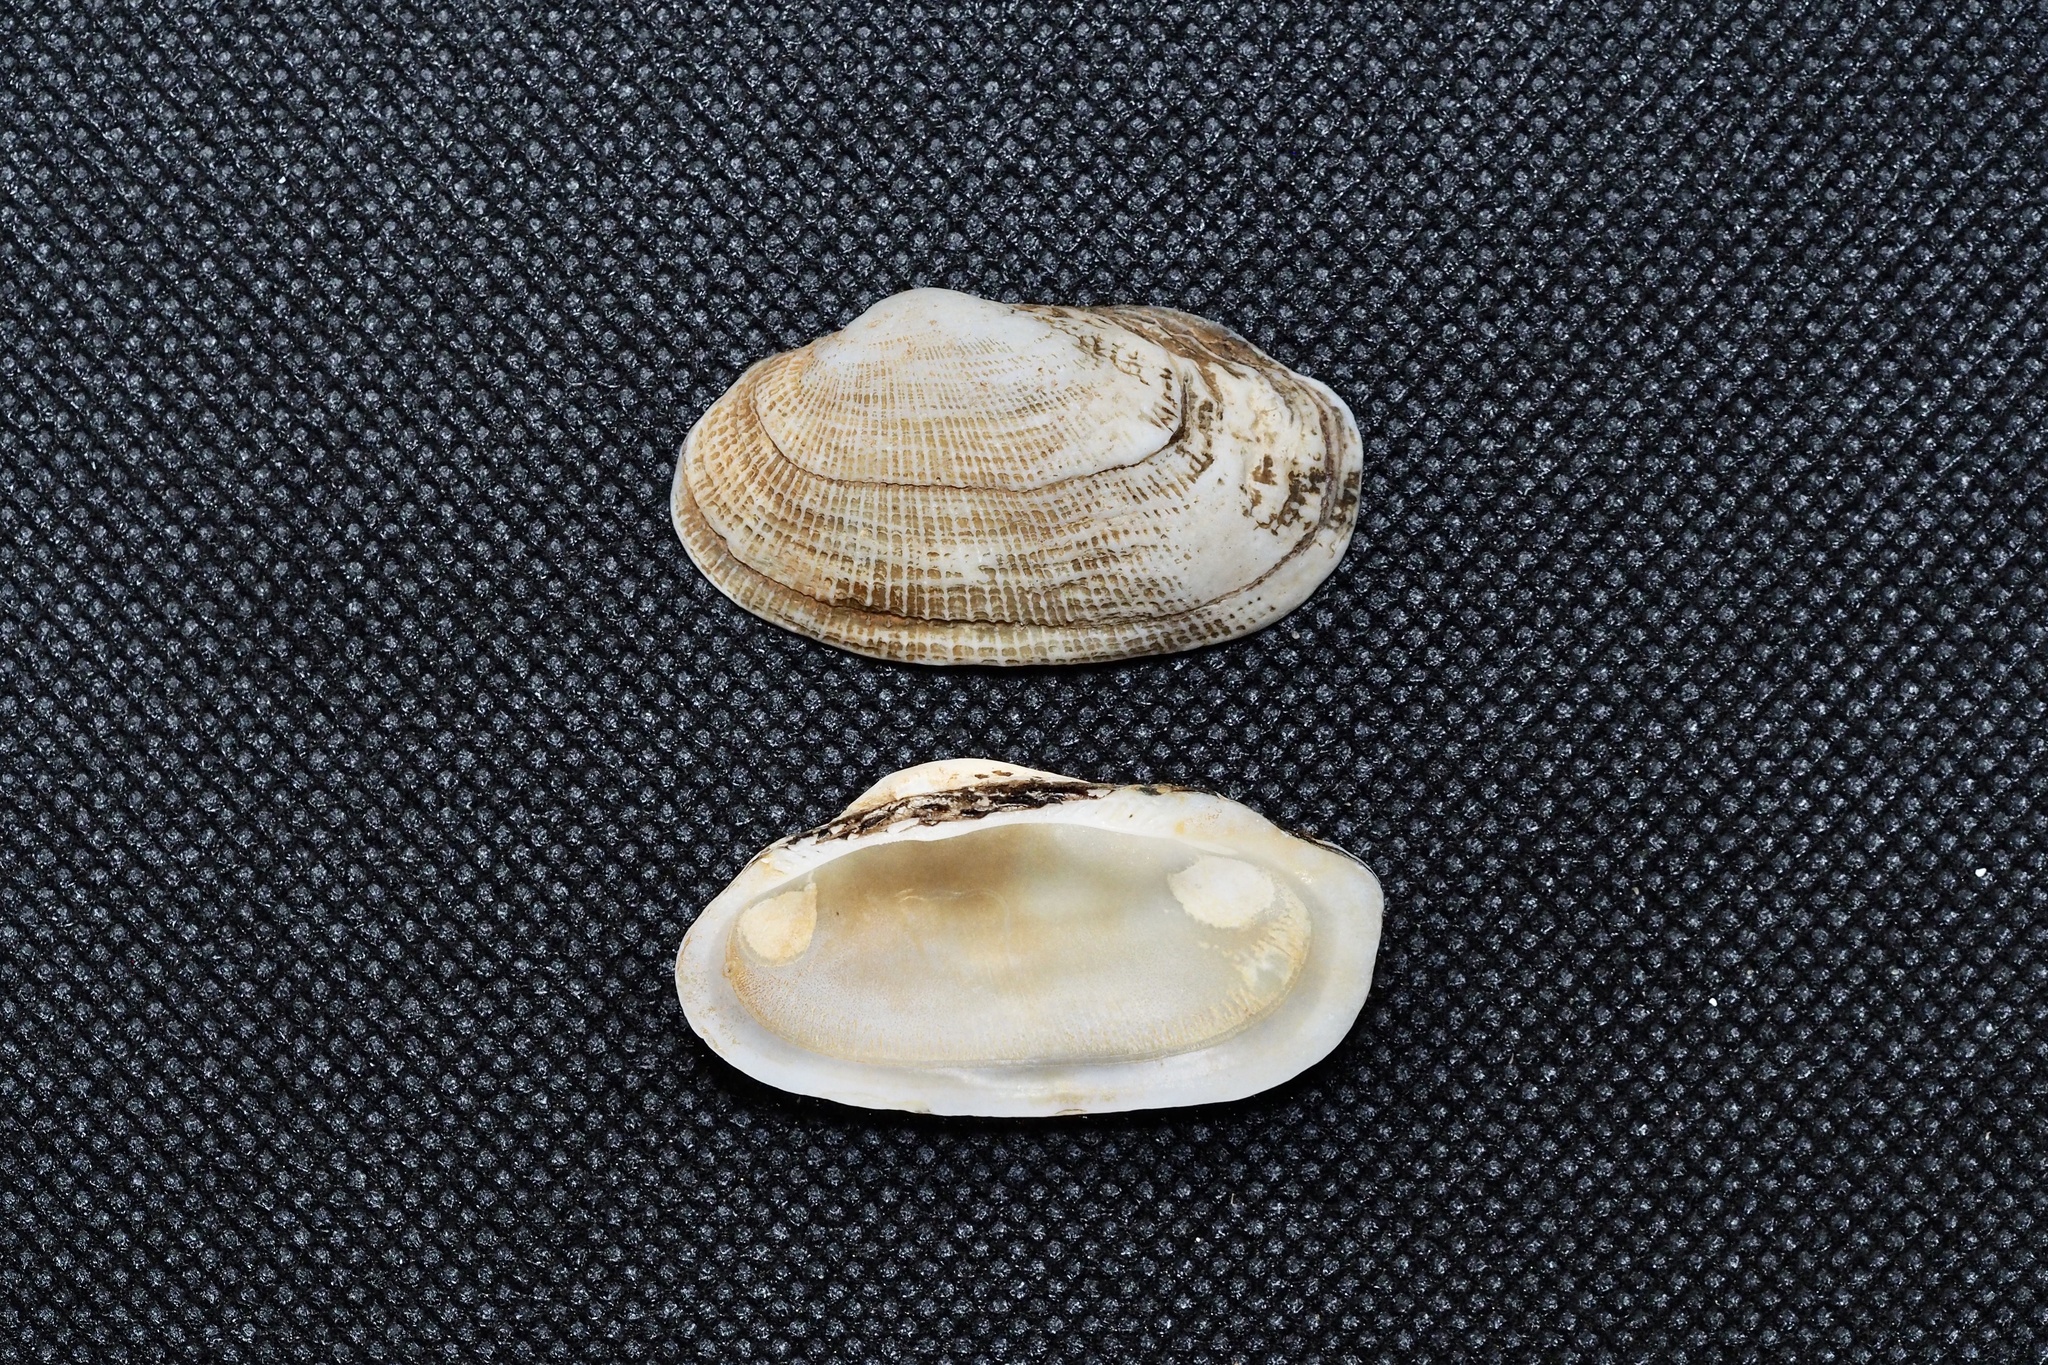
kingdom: Animalia
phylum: Mollusca
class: Bivalvia
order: Arcida
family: Arcidae
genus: Barbatia
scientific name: Barbatia virescens
